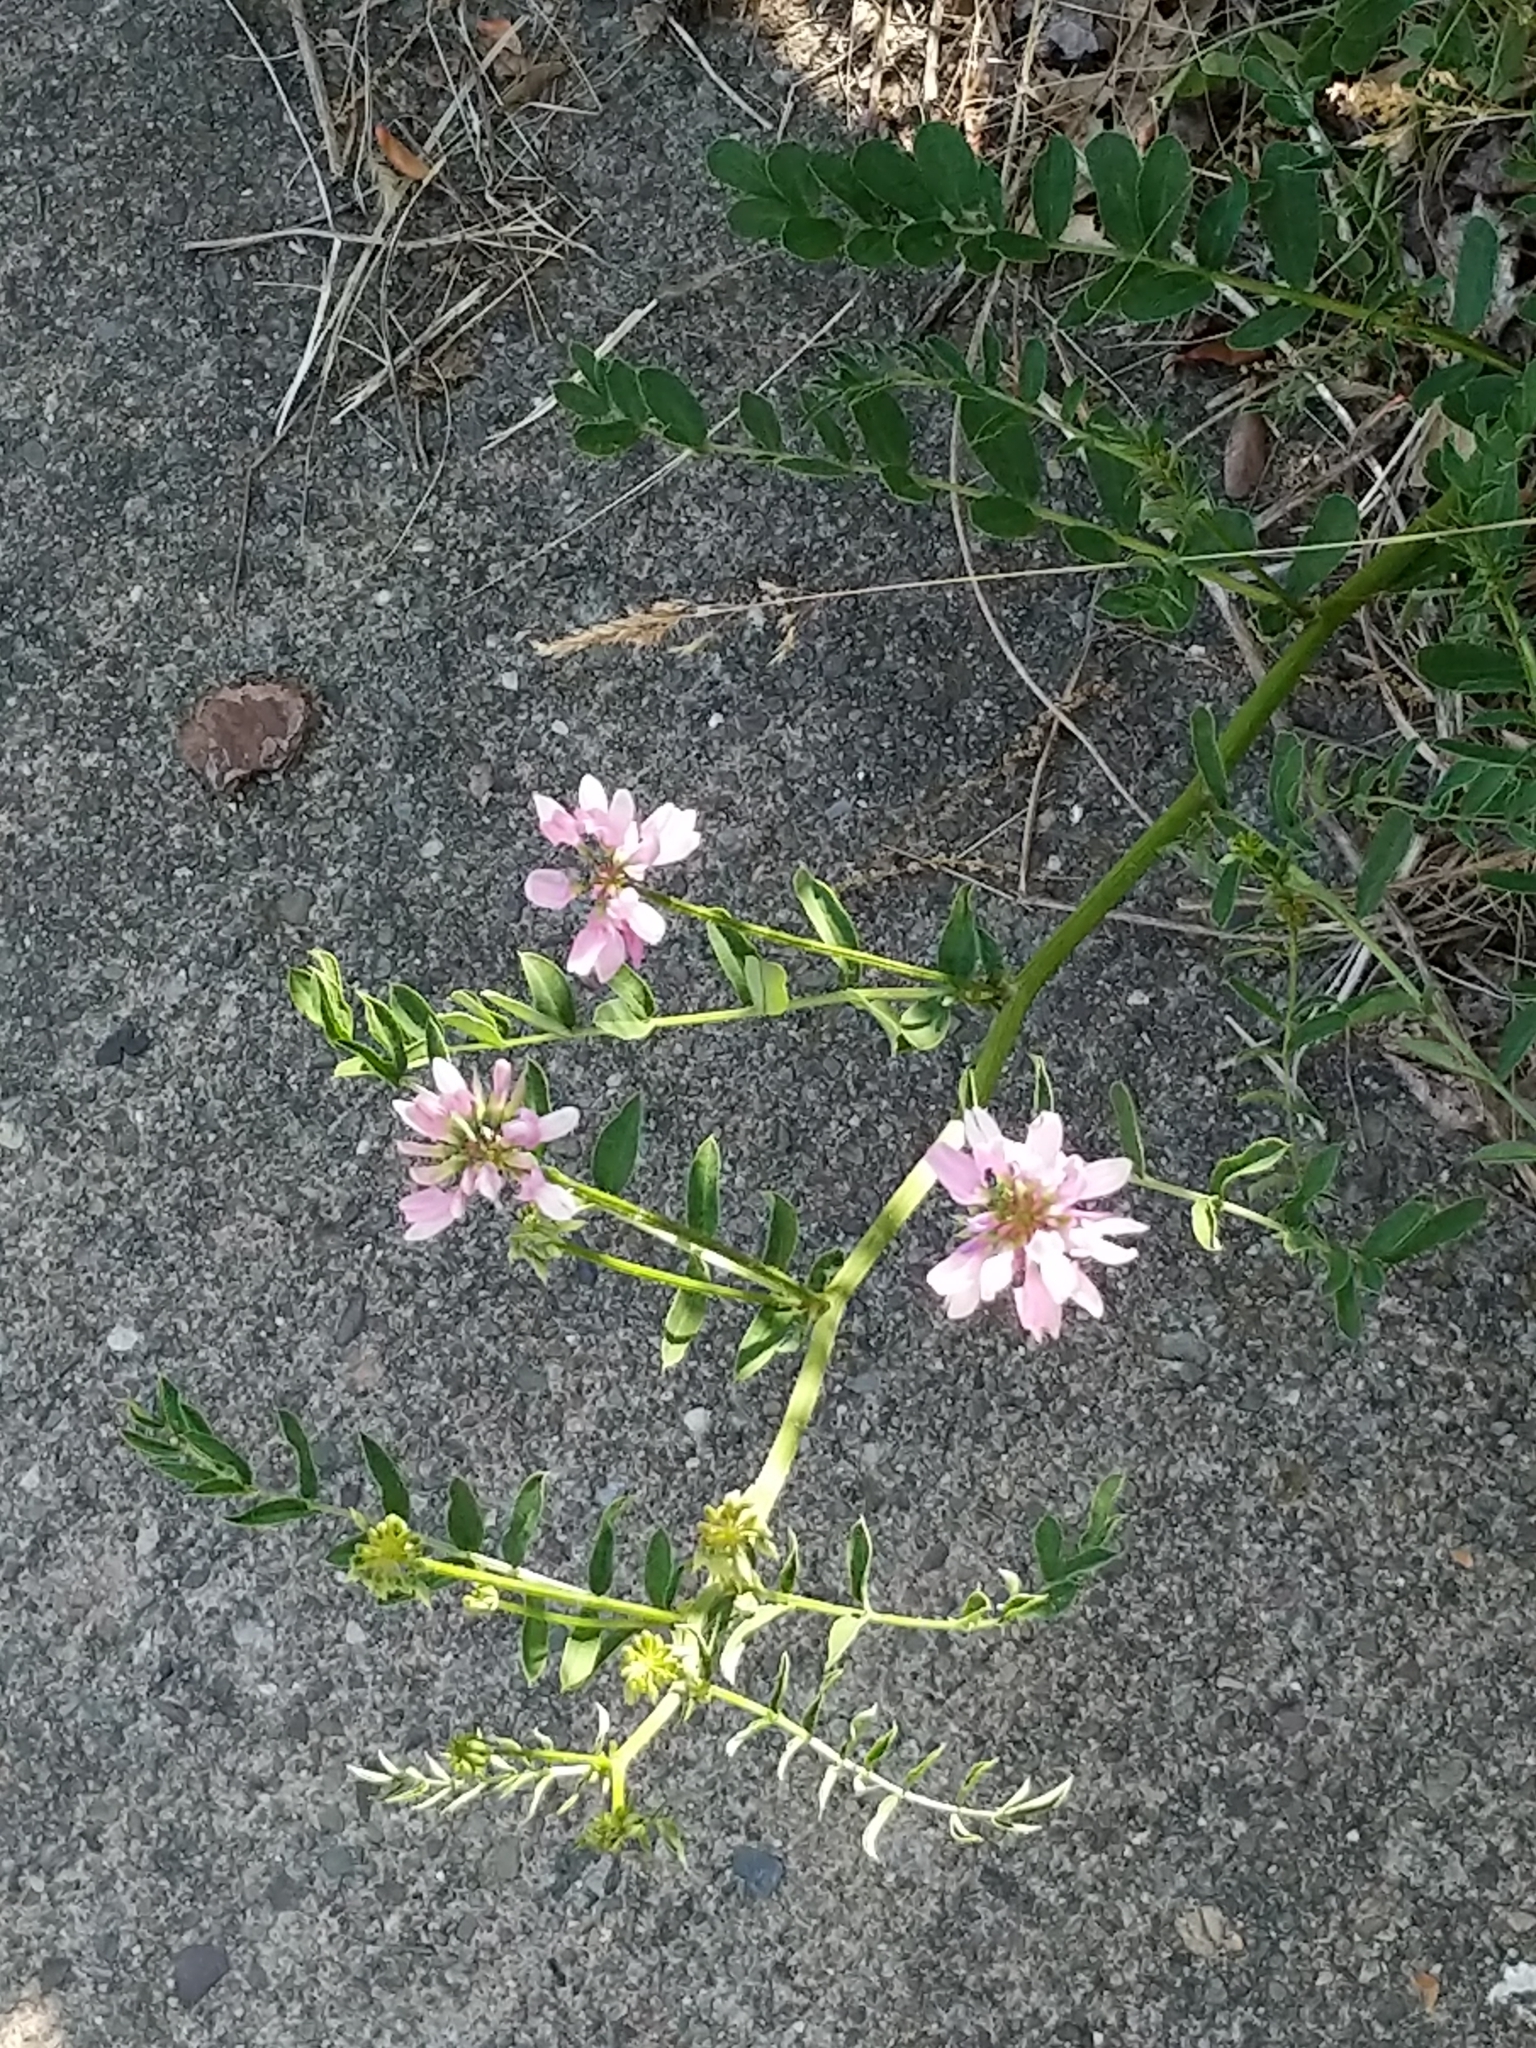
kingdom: Plantae
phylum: Tracheophyta
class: Magnoliopsida
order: Fabales
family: Fabaceae
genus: Coronilla
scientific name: Coronilla varia
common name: Crownvetch
